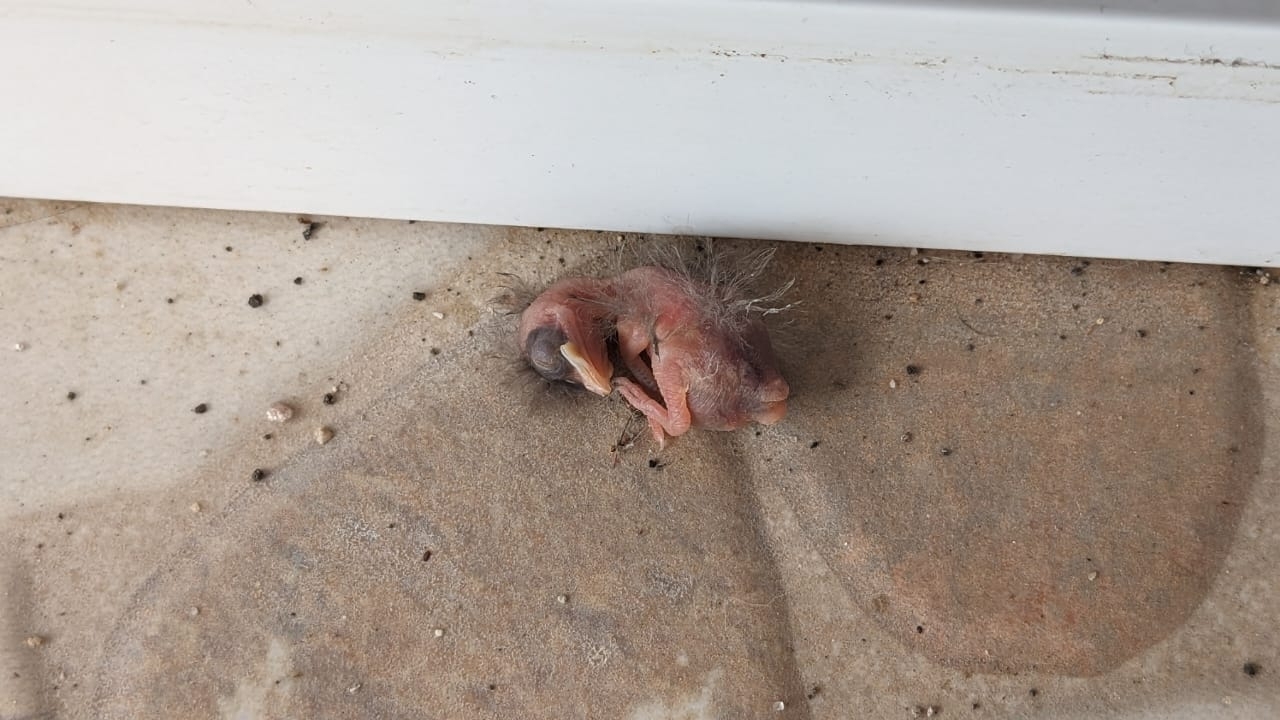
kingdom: Animalia
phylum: Chordata
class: Aves
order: Passeriformes
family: Hirundinidae
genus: Hirundo
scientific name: Hirundo rustica
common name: Barn swallow
